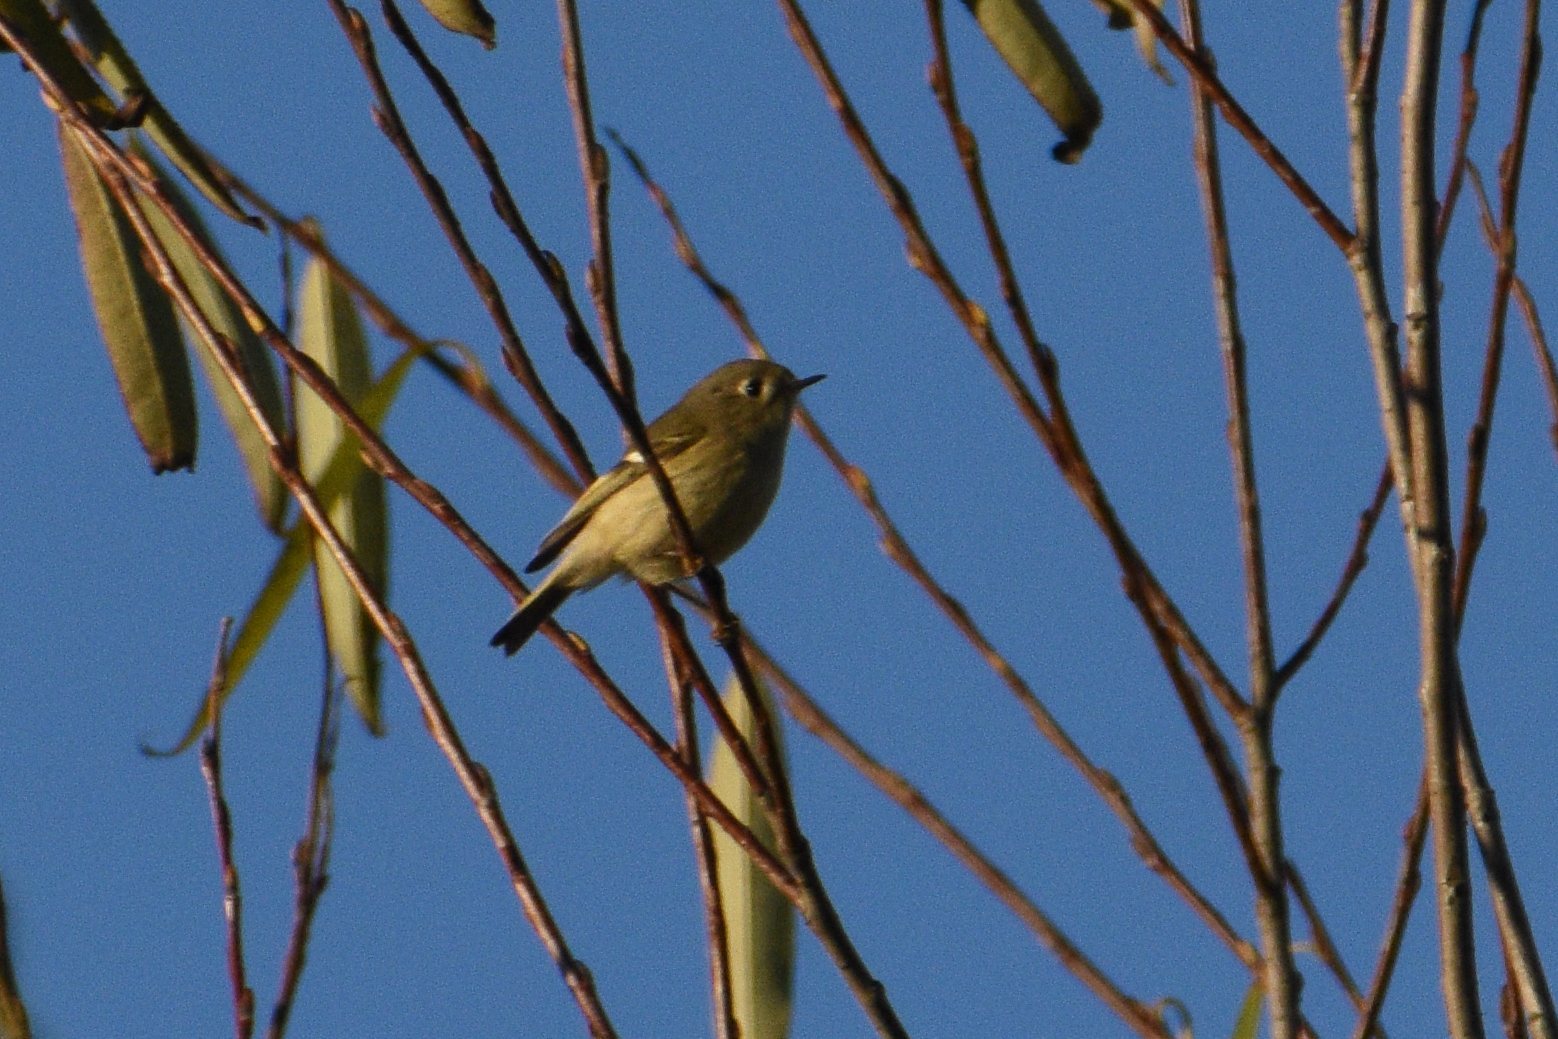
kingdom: Animalia
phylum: Chordata
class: Aves
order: Passeriformes
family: Regulidae
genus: Regulus
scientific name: Regulus calendula
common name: Ruby-crowned kinglet
